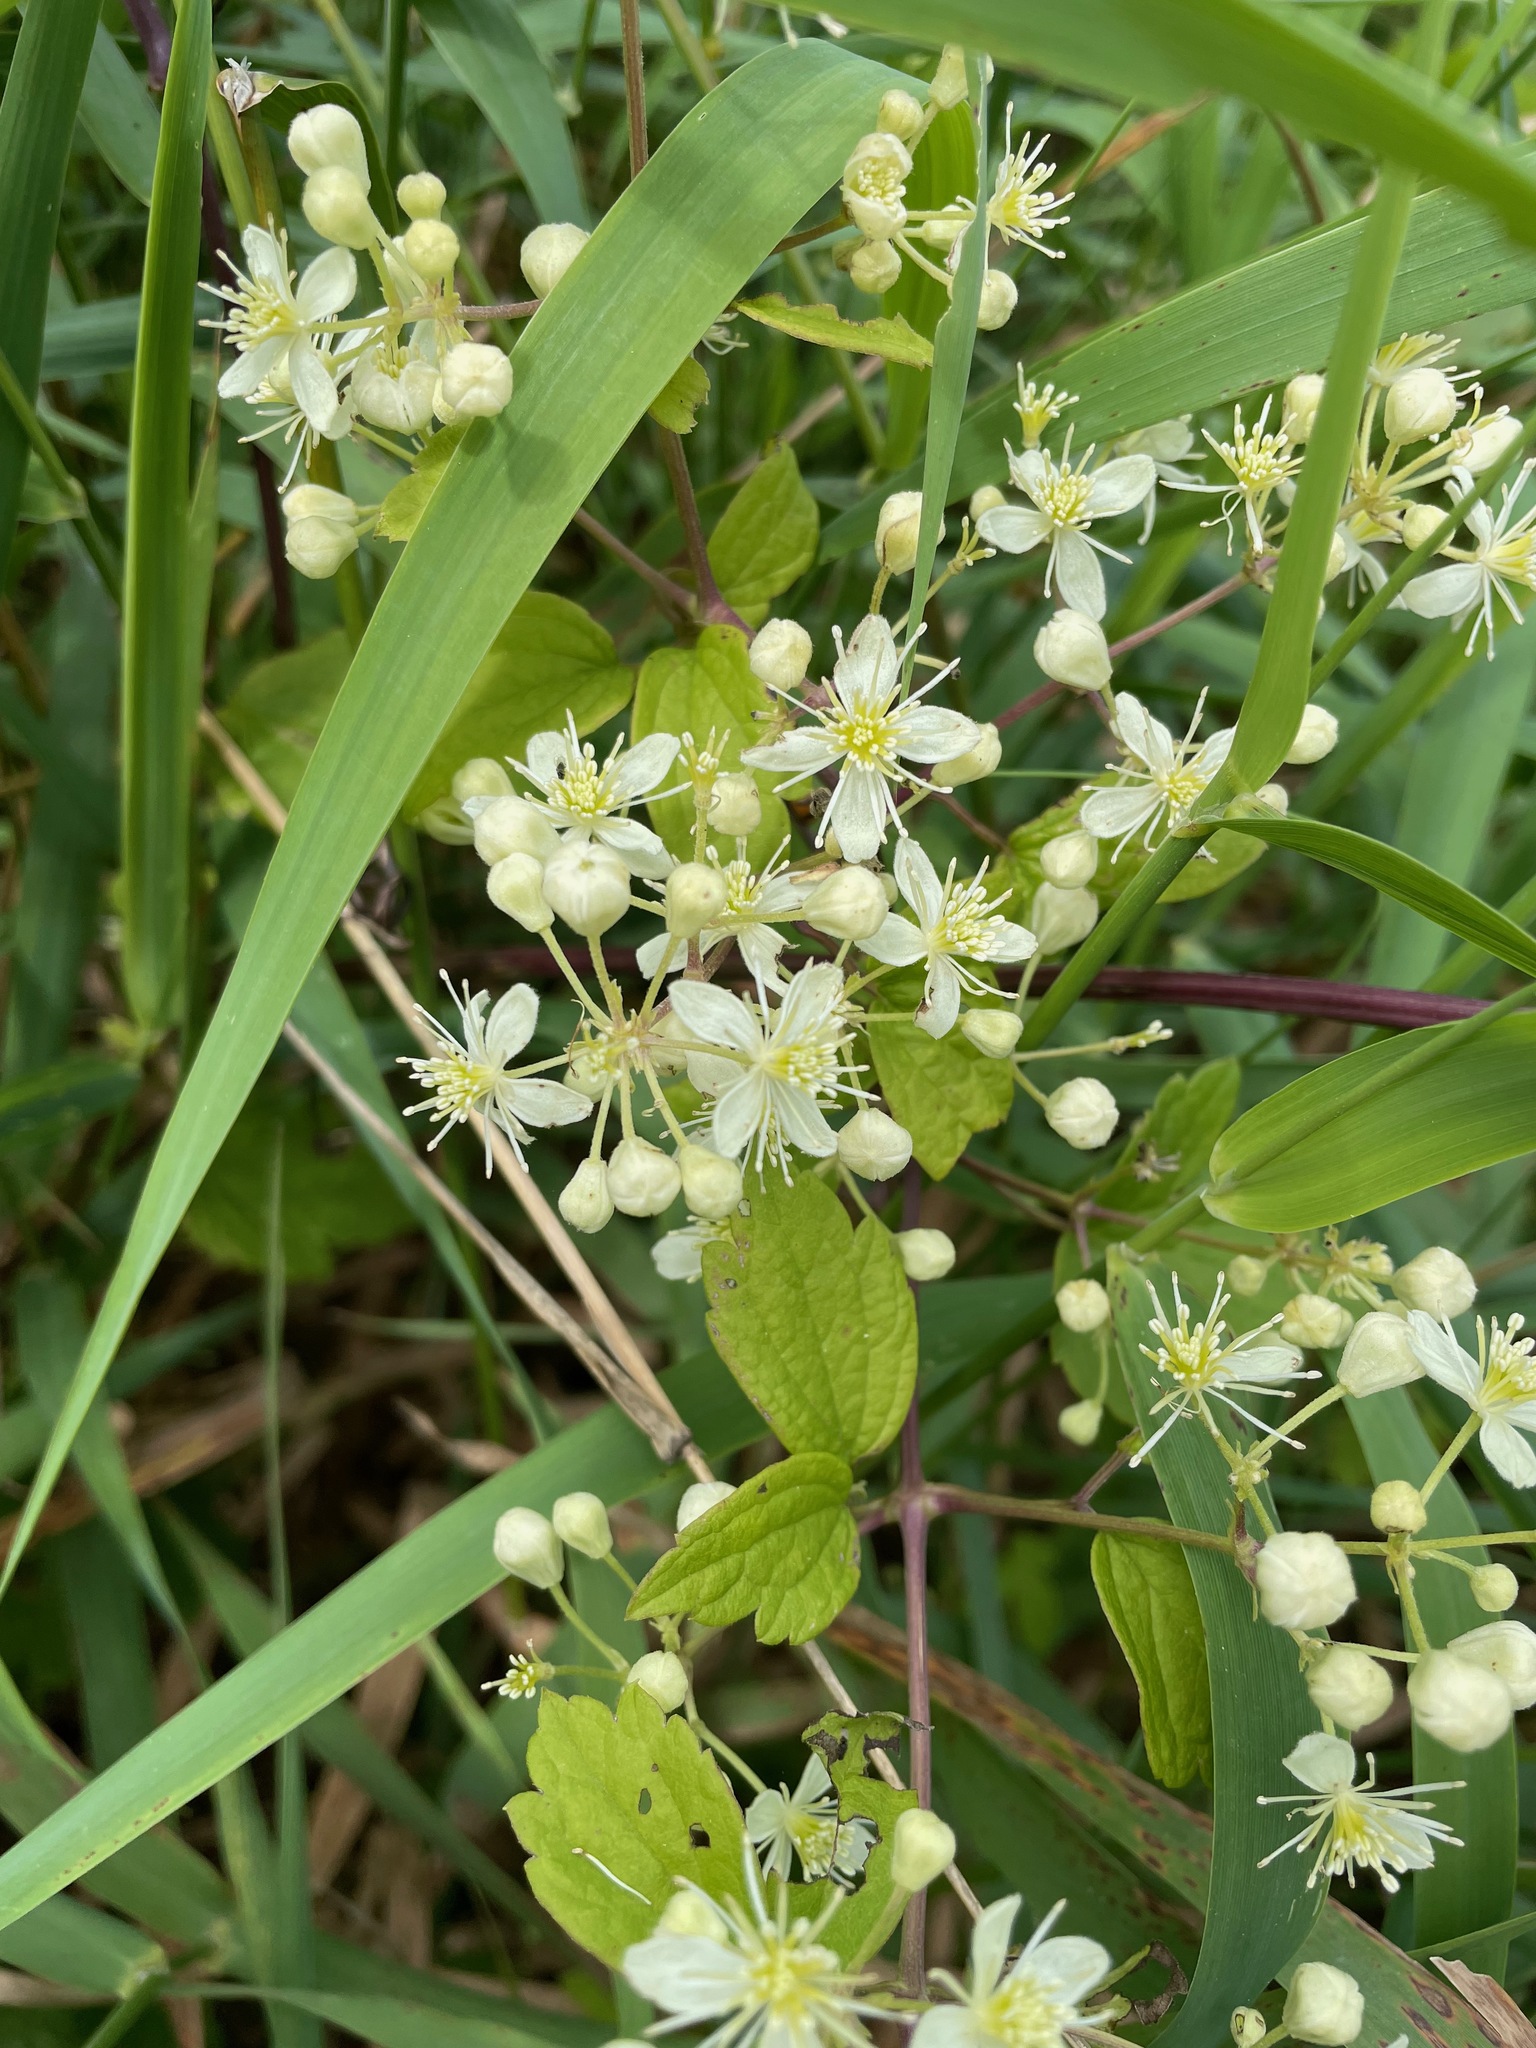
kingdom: Plantae
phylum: Tracheophyta
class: Magnoliopsida
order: Ranunculales
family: Ranunculaceae
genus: Clematis
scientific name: Clematis virginiana
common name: Virgin's-bower
